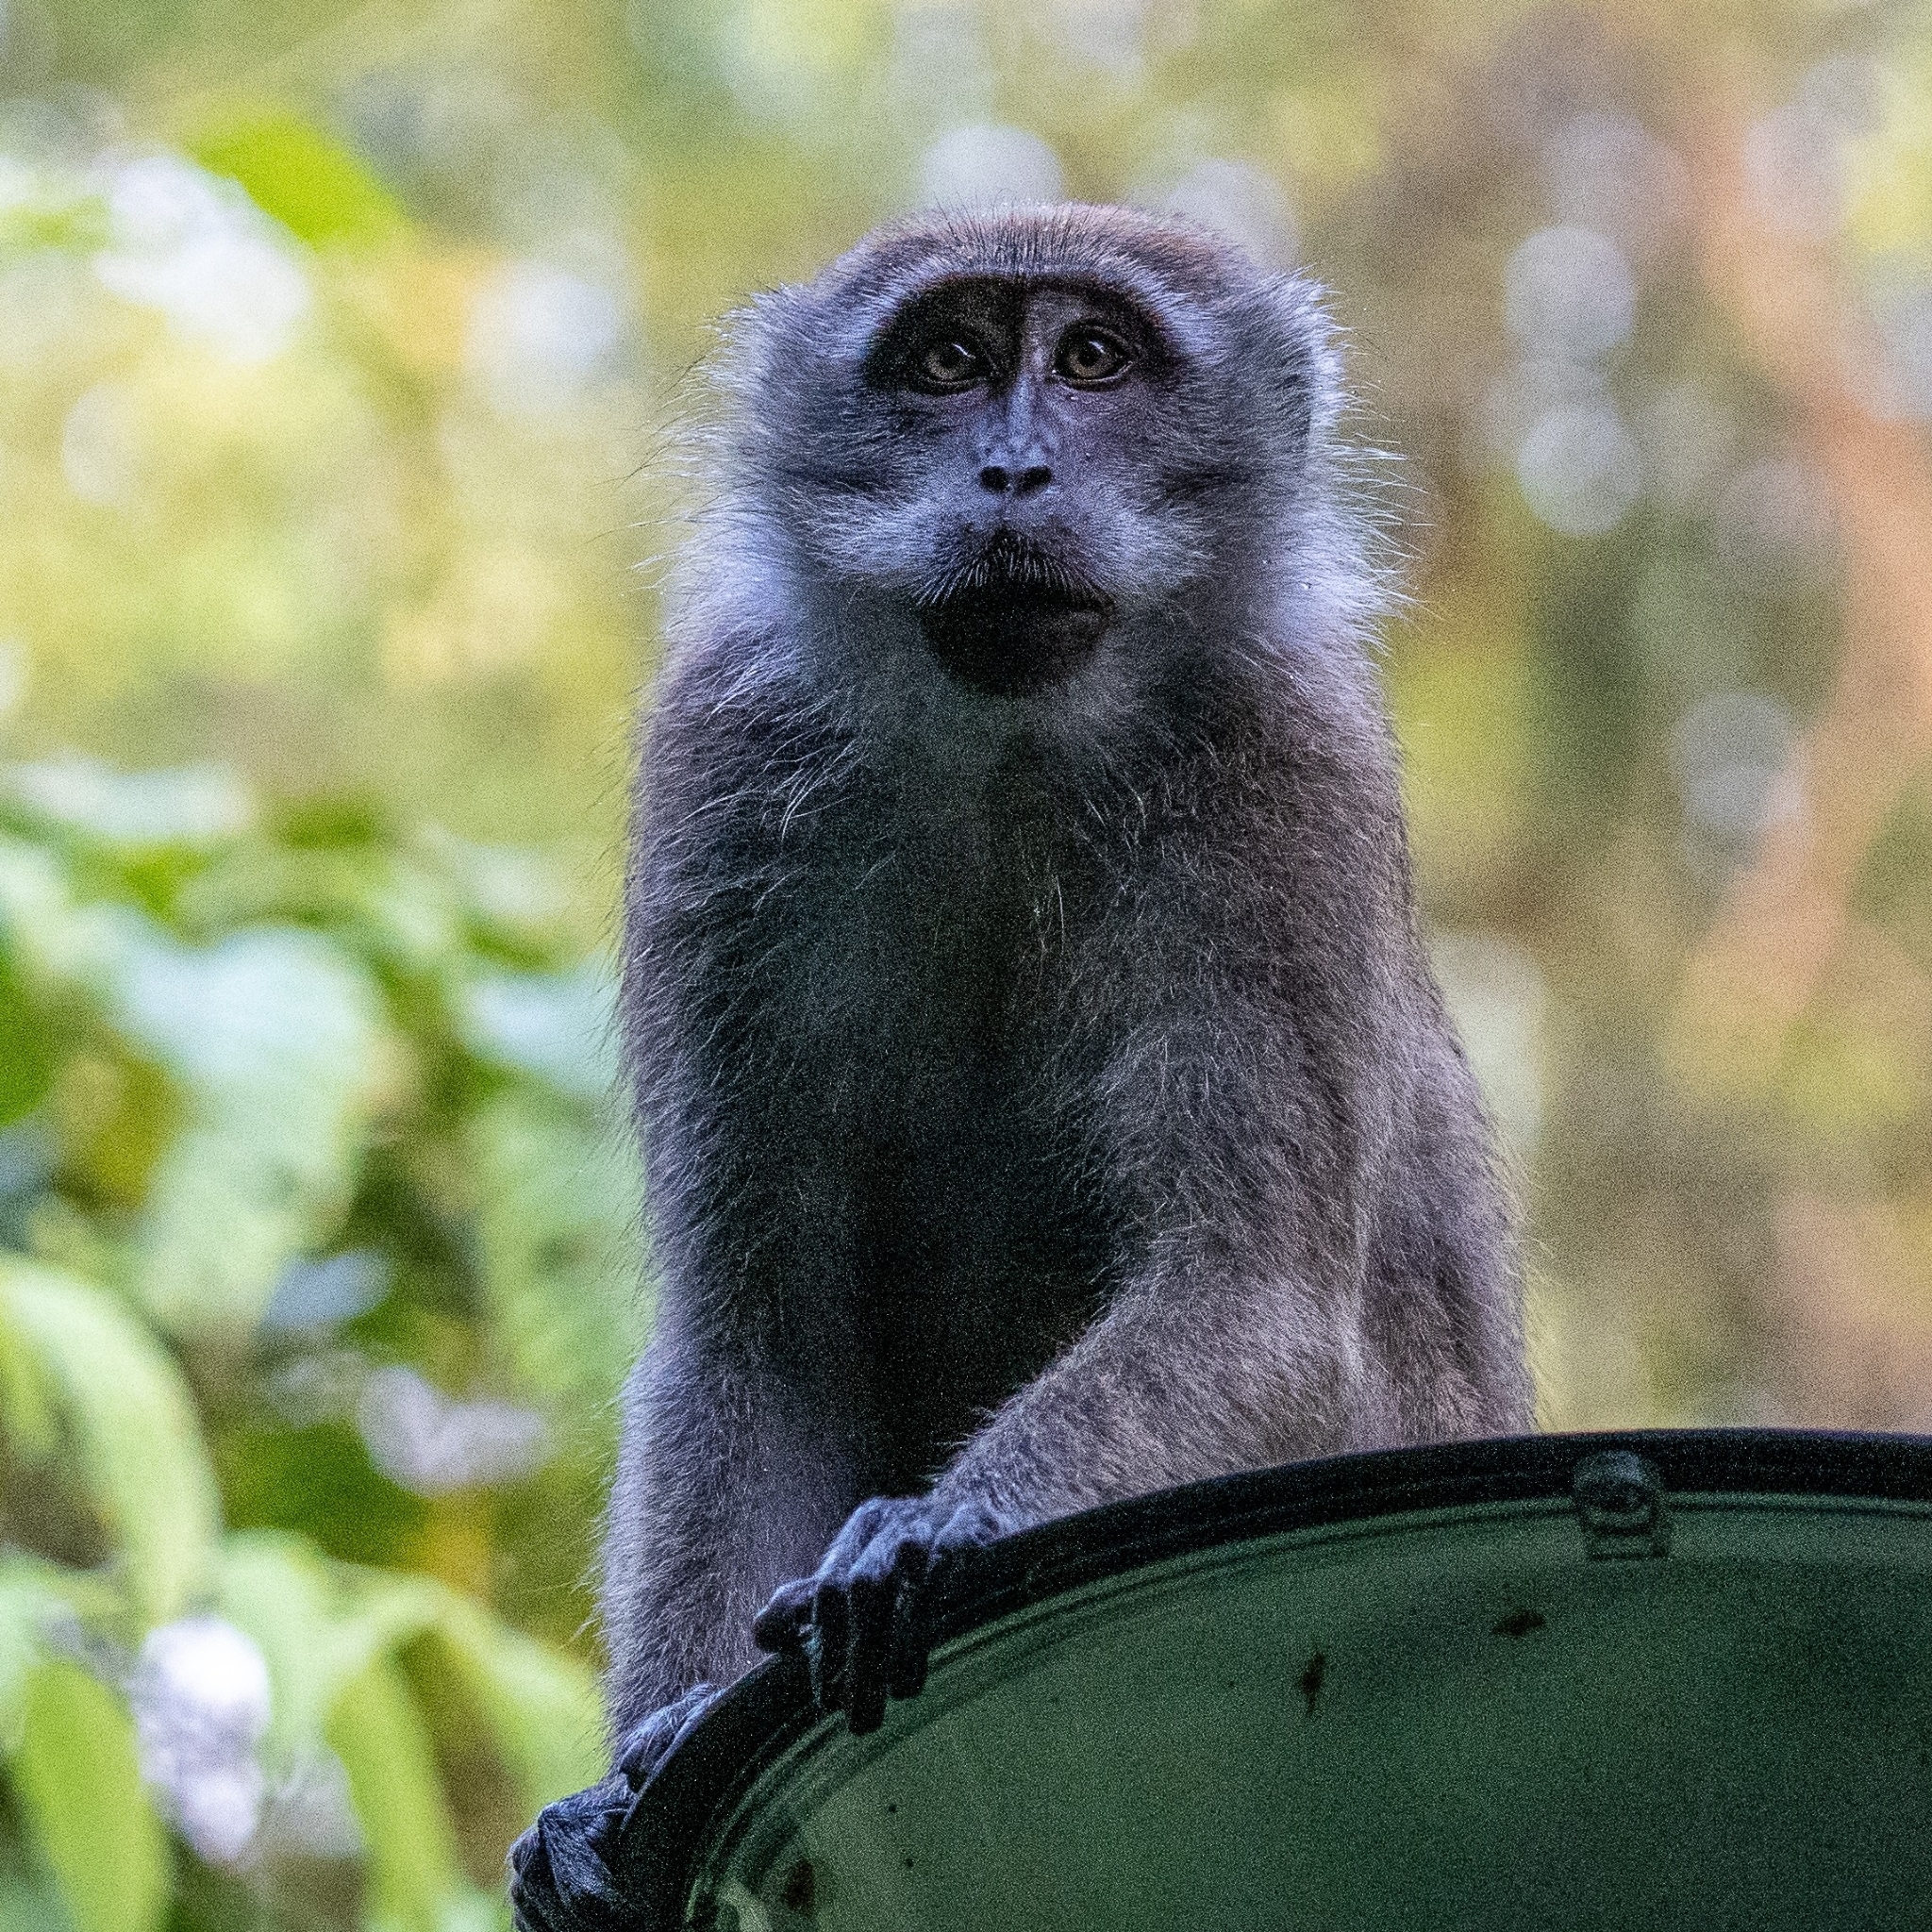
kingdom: Animalia
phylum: Chordata
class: Mammalia
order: Primates
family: Cercopithecidae
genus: Macaca
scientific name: Macaca fascicularis
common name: Crab-eating macaque
